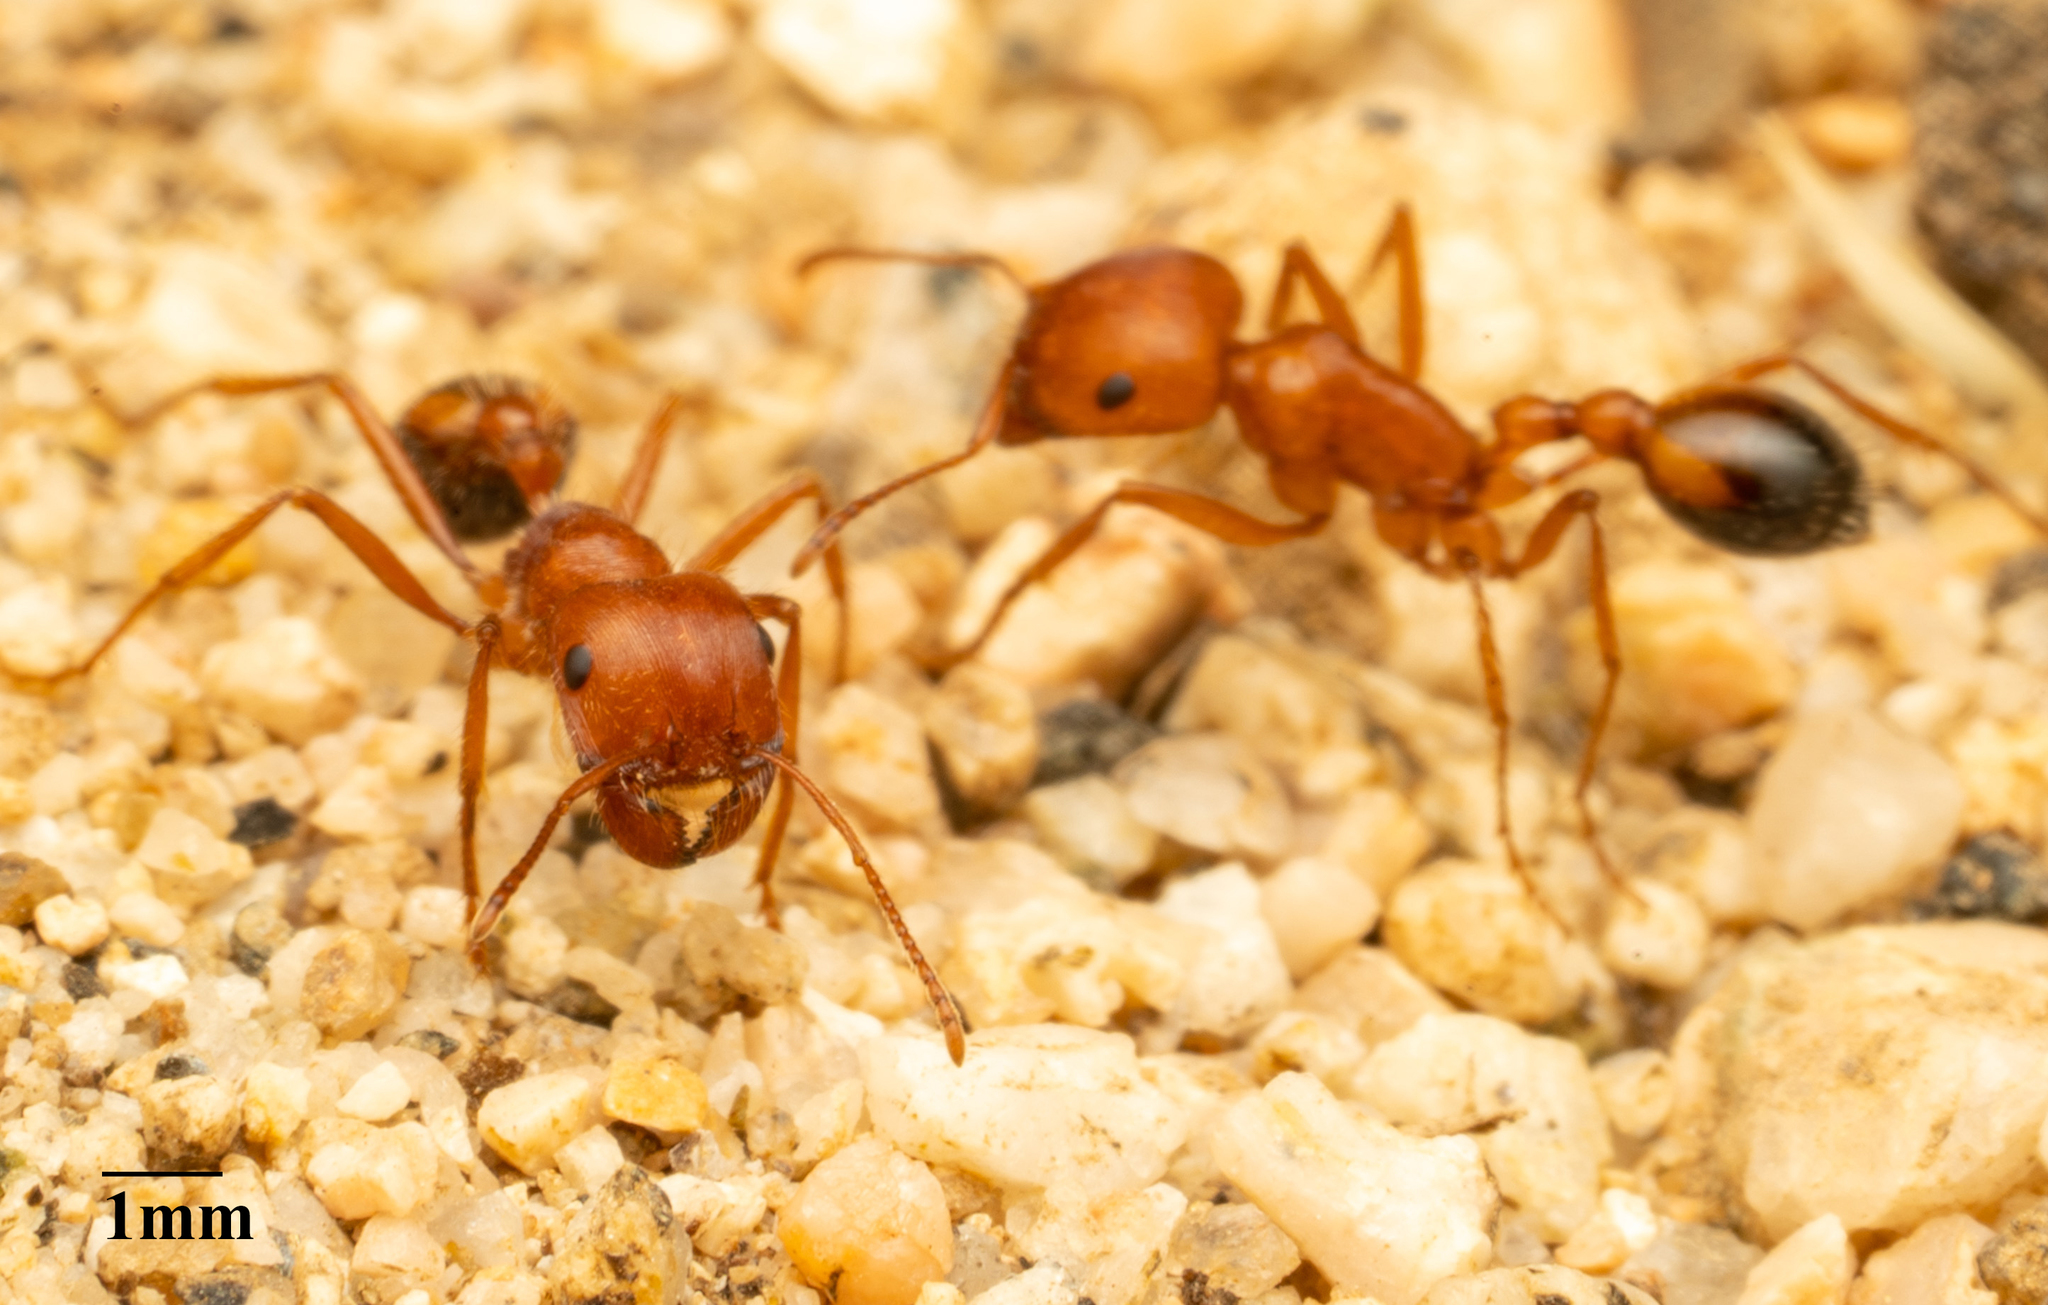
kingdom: Animalia
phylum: Arthropoda
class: Insecta
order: Hymenoptera
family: Formicidae
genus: Pogonomyrmex
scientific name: Pogonomyrmex californicus
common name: California harvester ant
